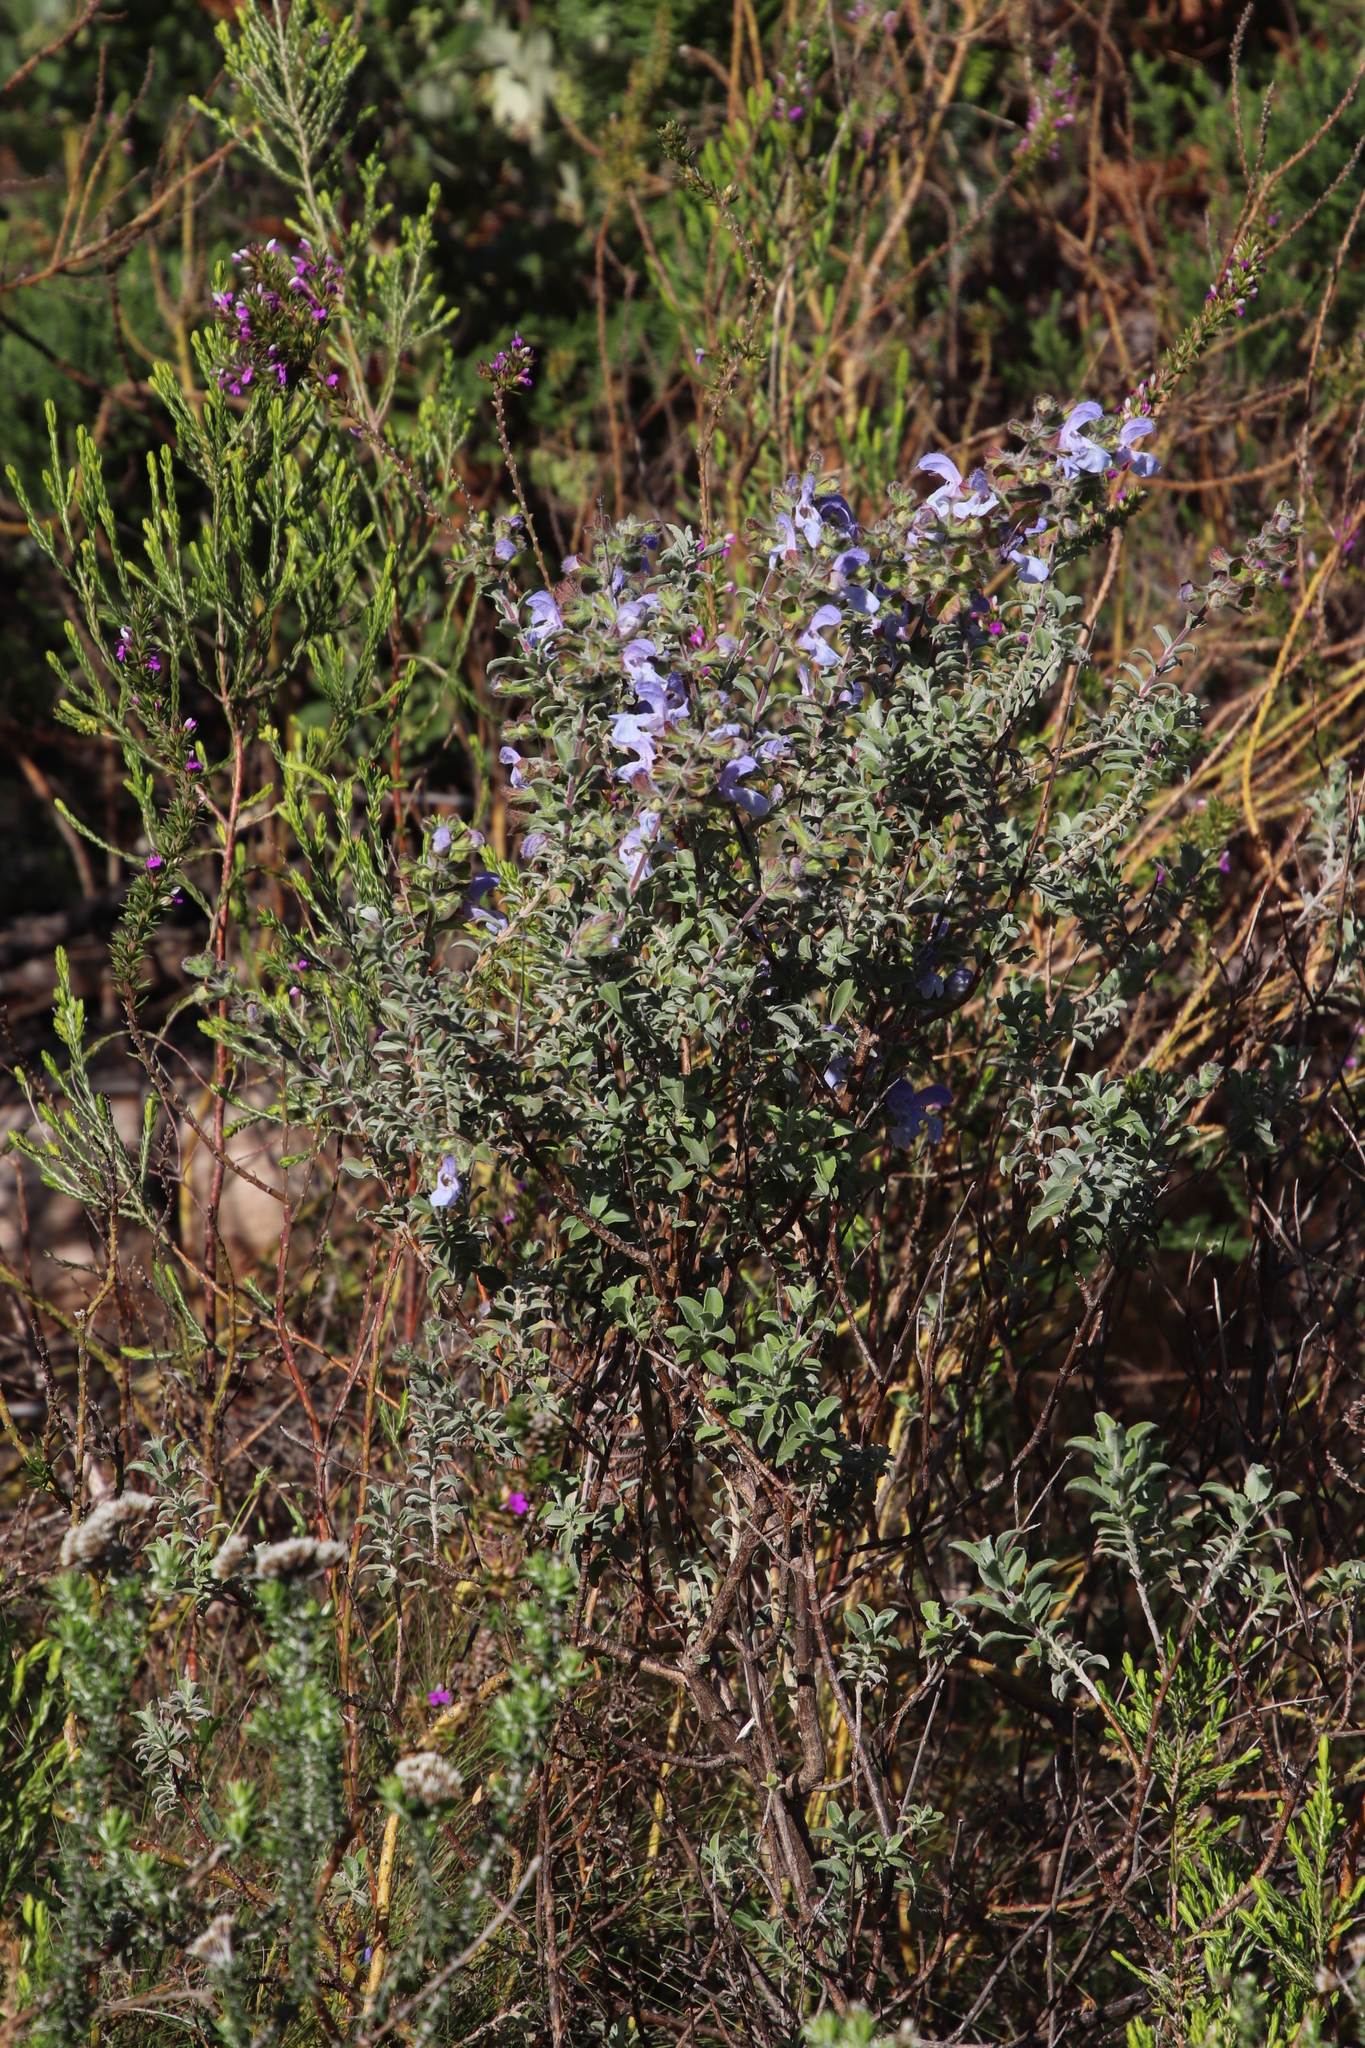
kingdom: Plantae
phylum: Tracheophyta
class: Magnoliopsida
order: Lamiales
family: Lamiaceae
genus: Salvia
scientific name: Salvia africana
